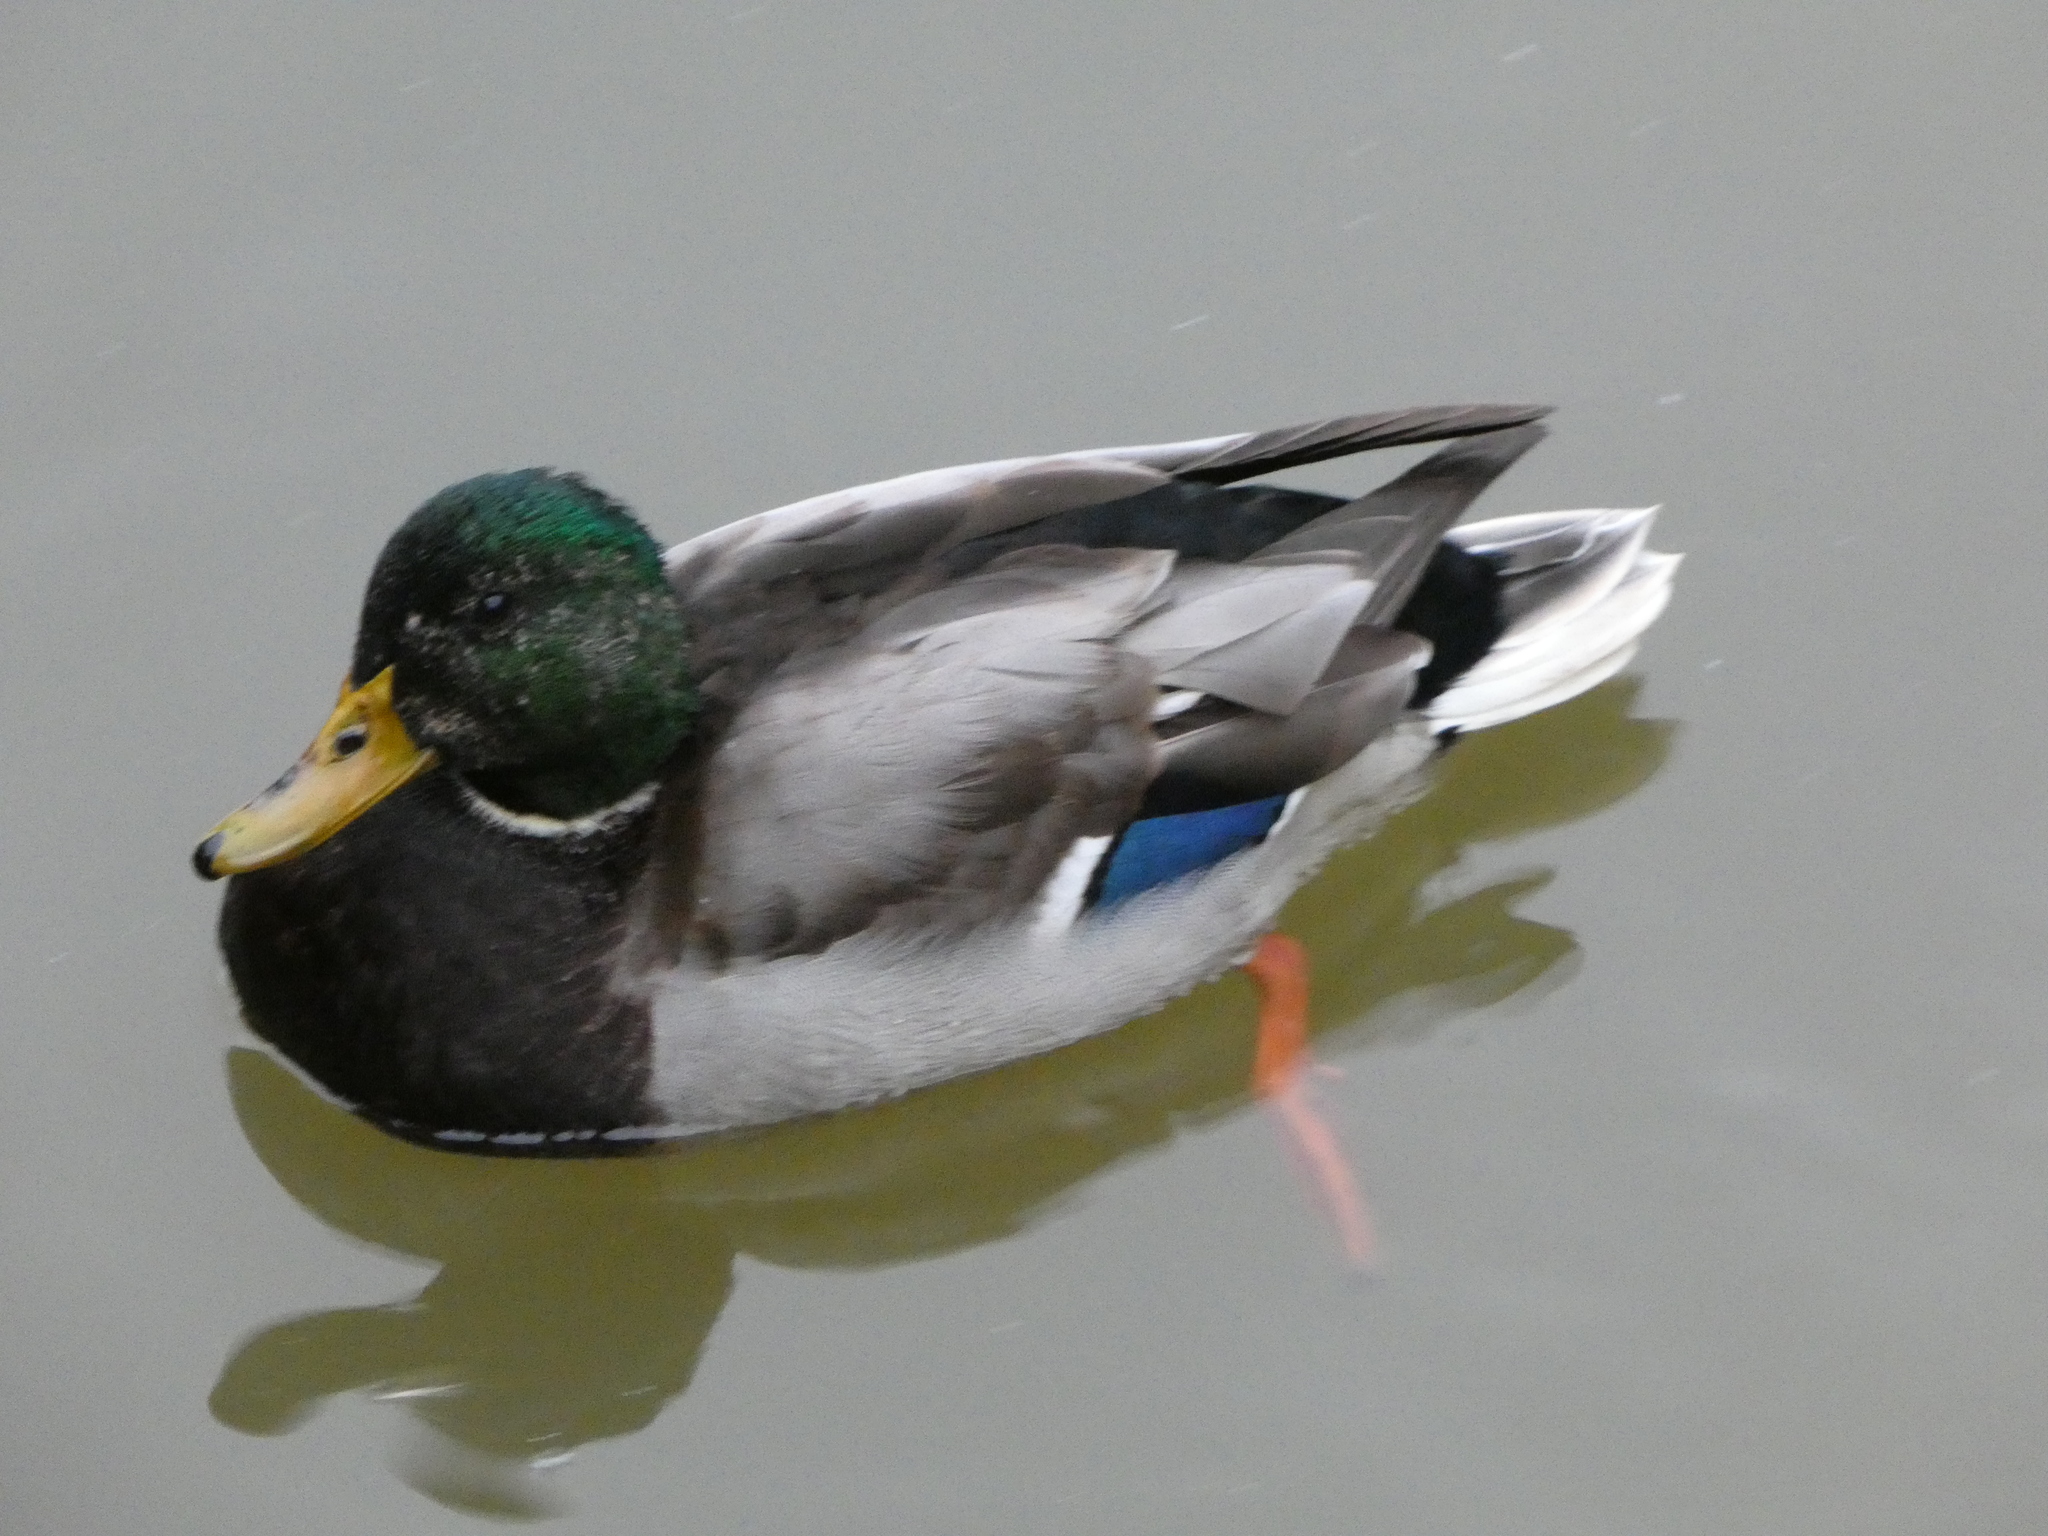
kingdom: Animalia
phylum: Chordata
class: Aves
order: Anseriformes
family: Anatidae
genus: Anas
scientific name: Anas platyrhynchos
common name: Mallard
